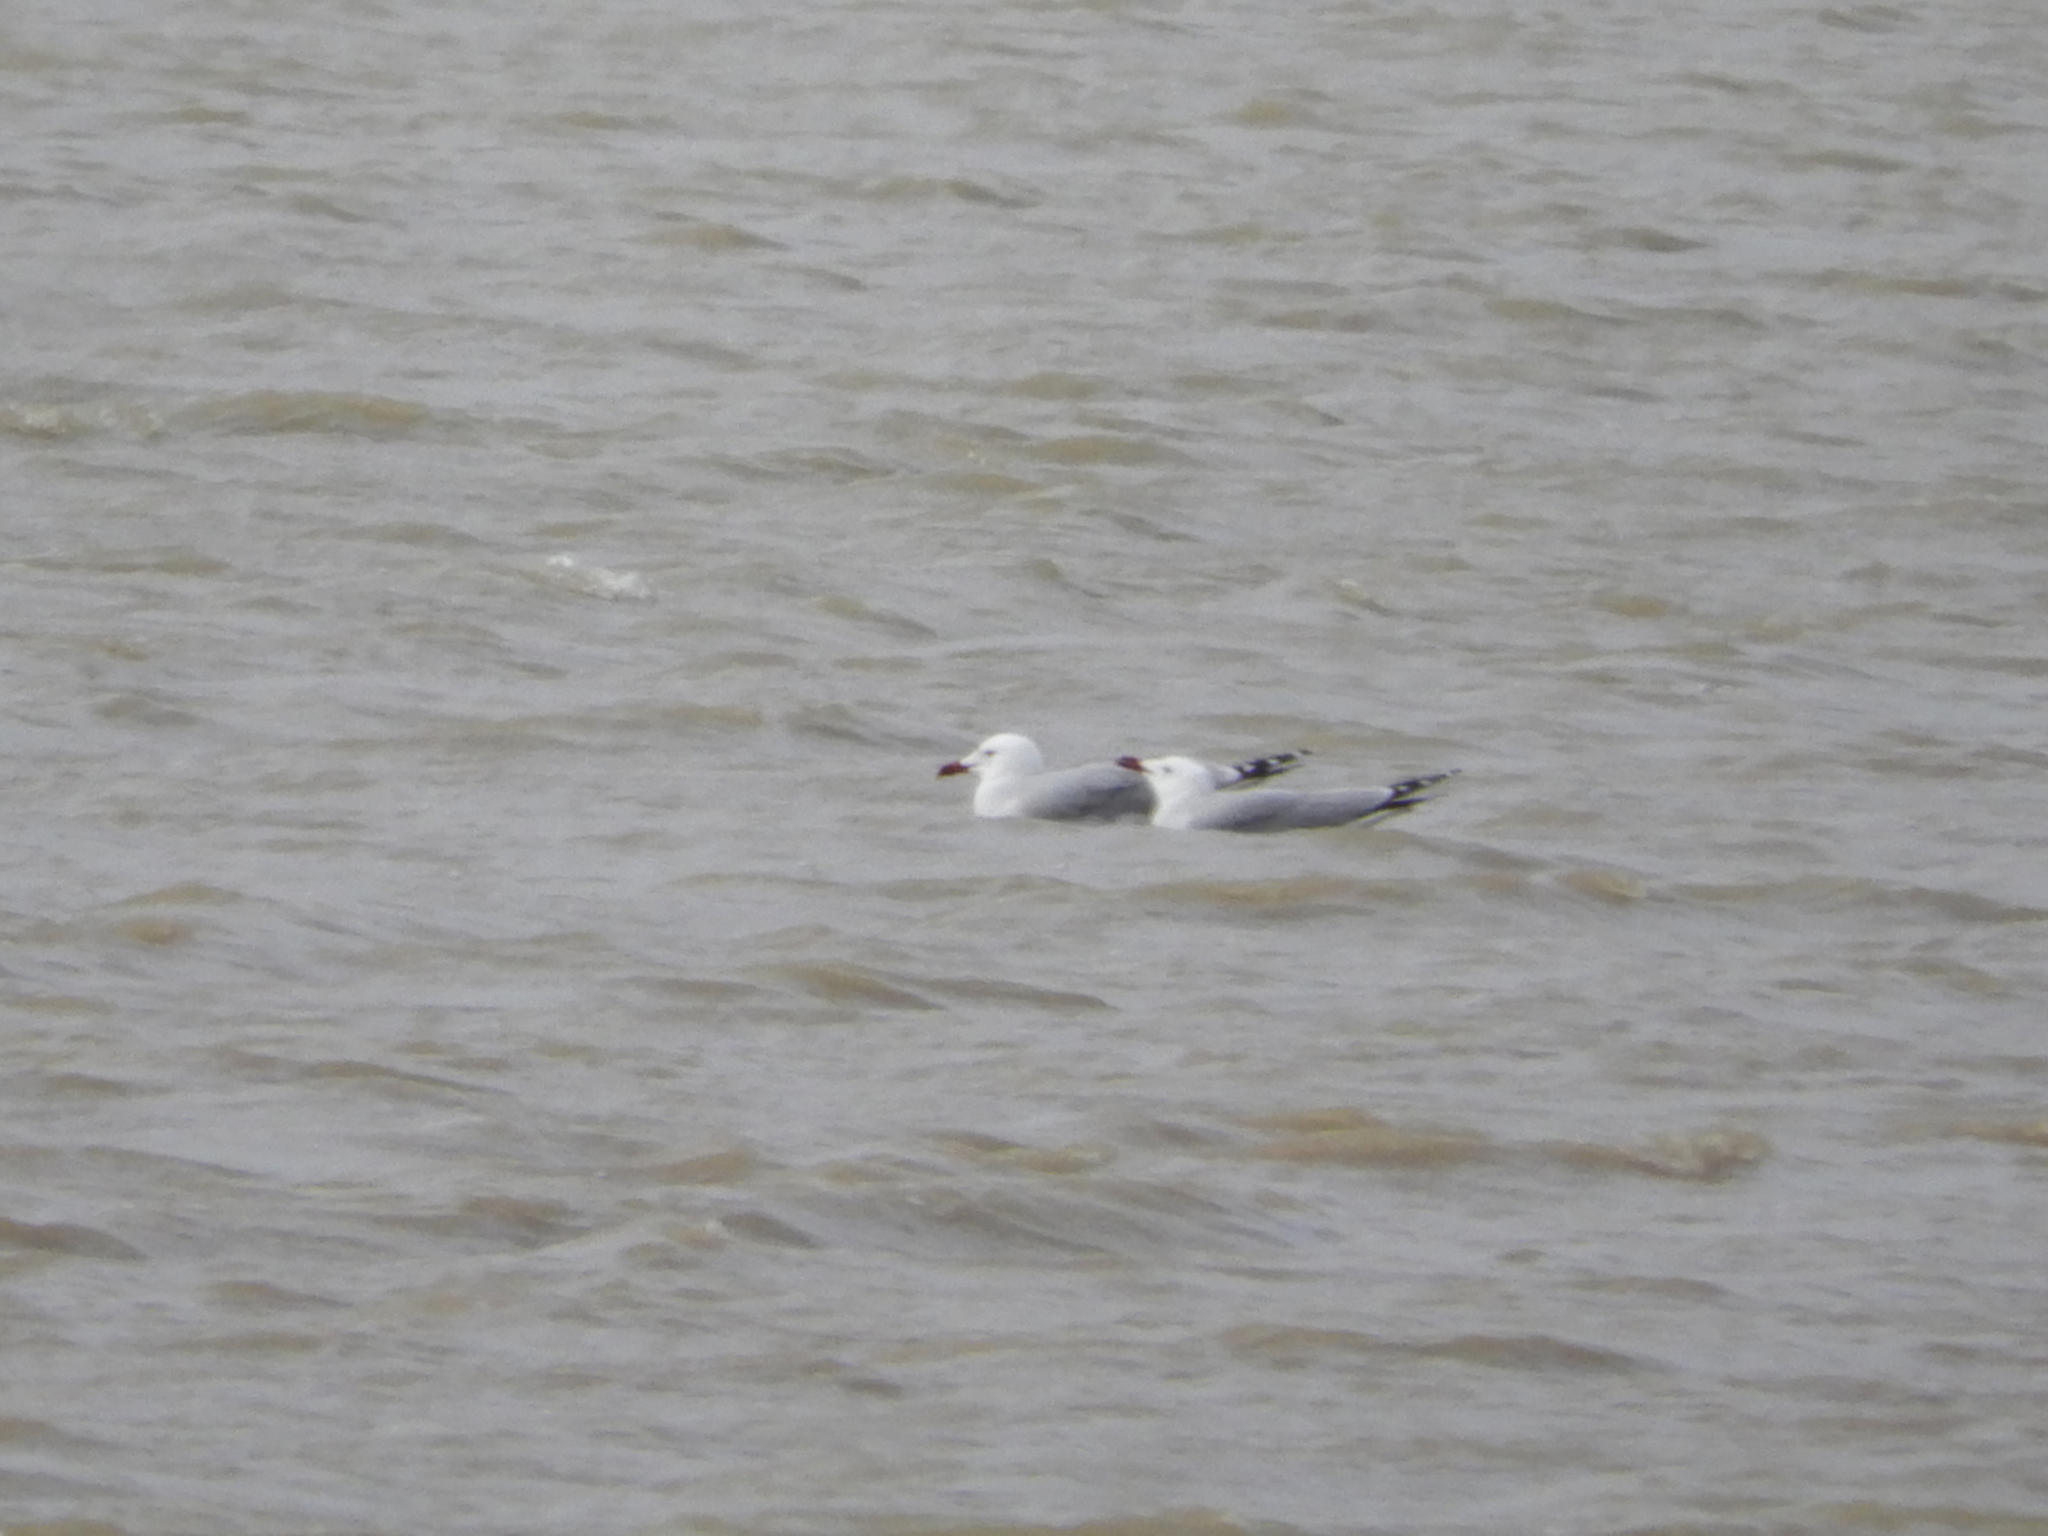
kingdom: Animalia
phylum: Chordata
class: Aves
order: Charadriiformes
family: Laridae
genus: Ichthyaetus
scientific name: Ichthyaetus audouinii
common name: Audouin's gull
